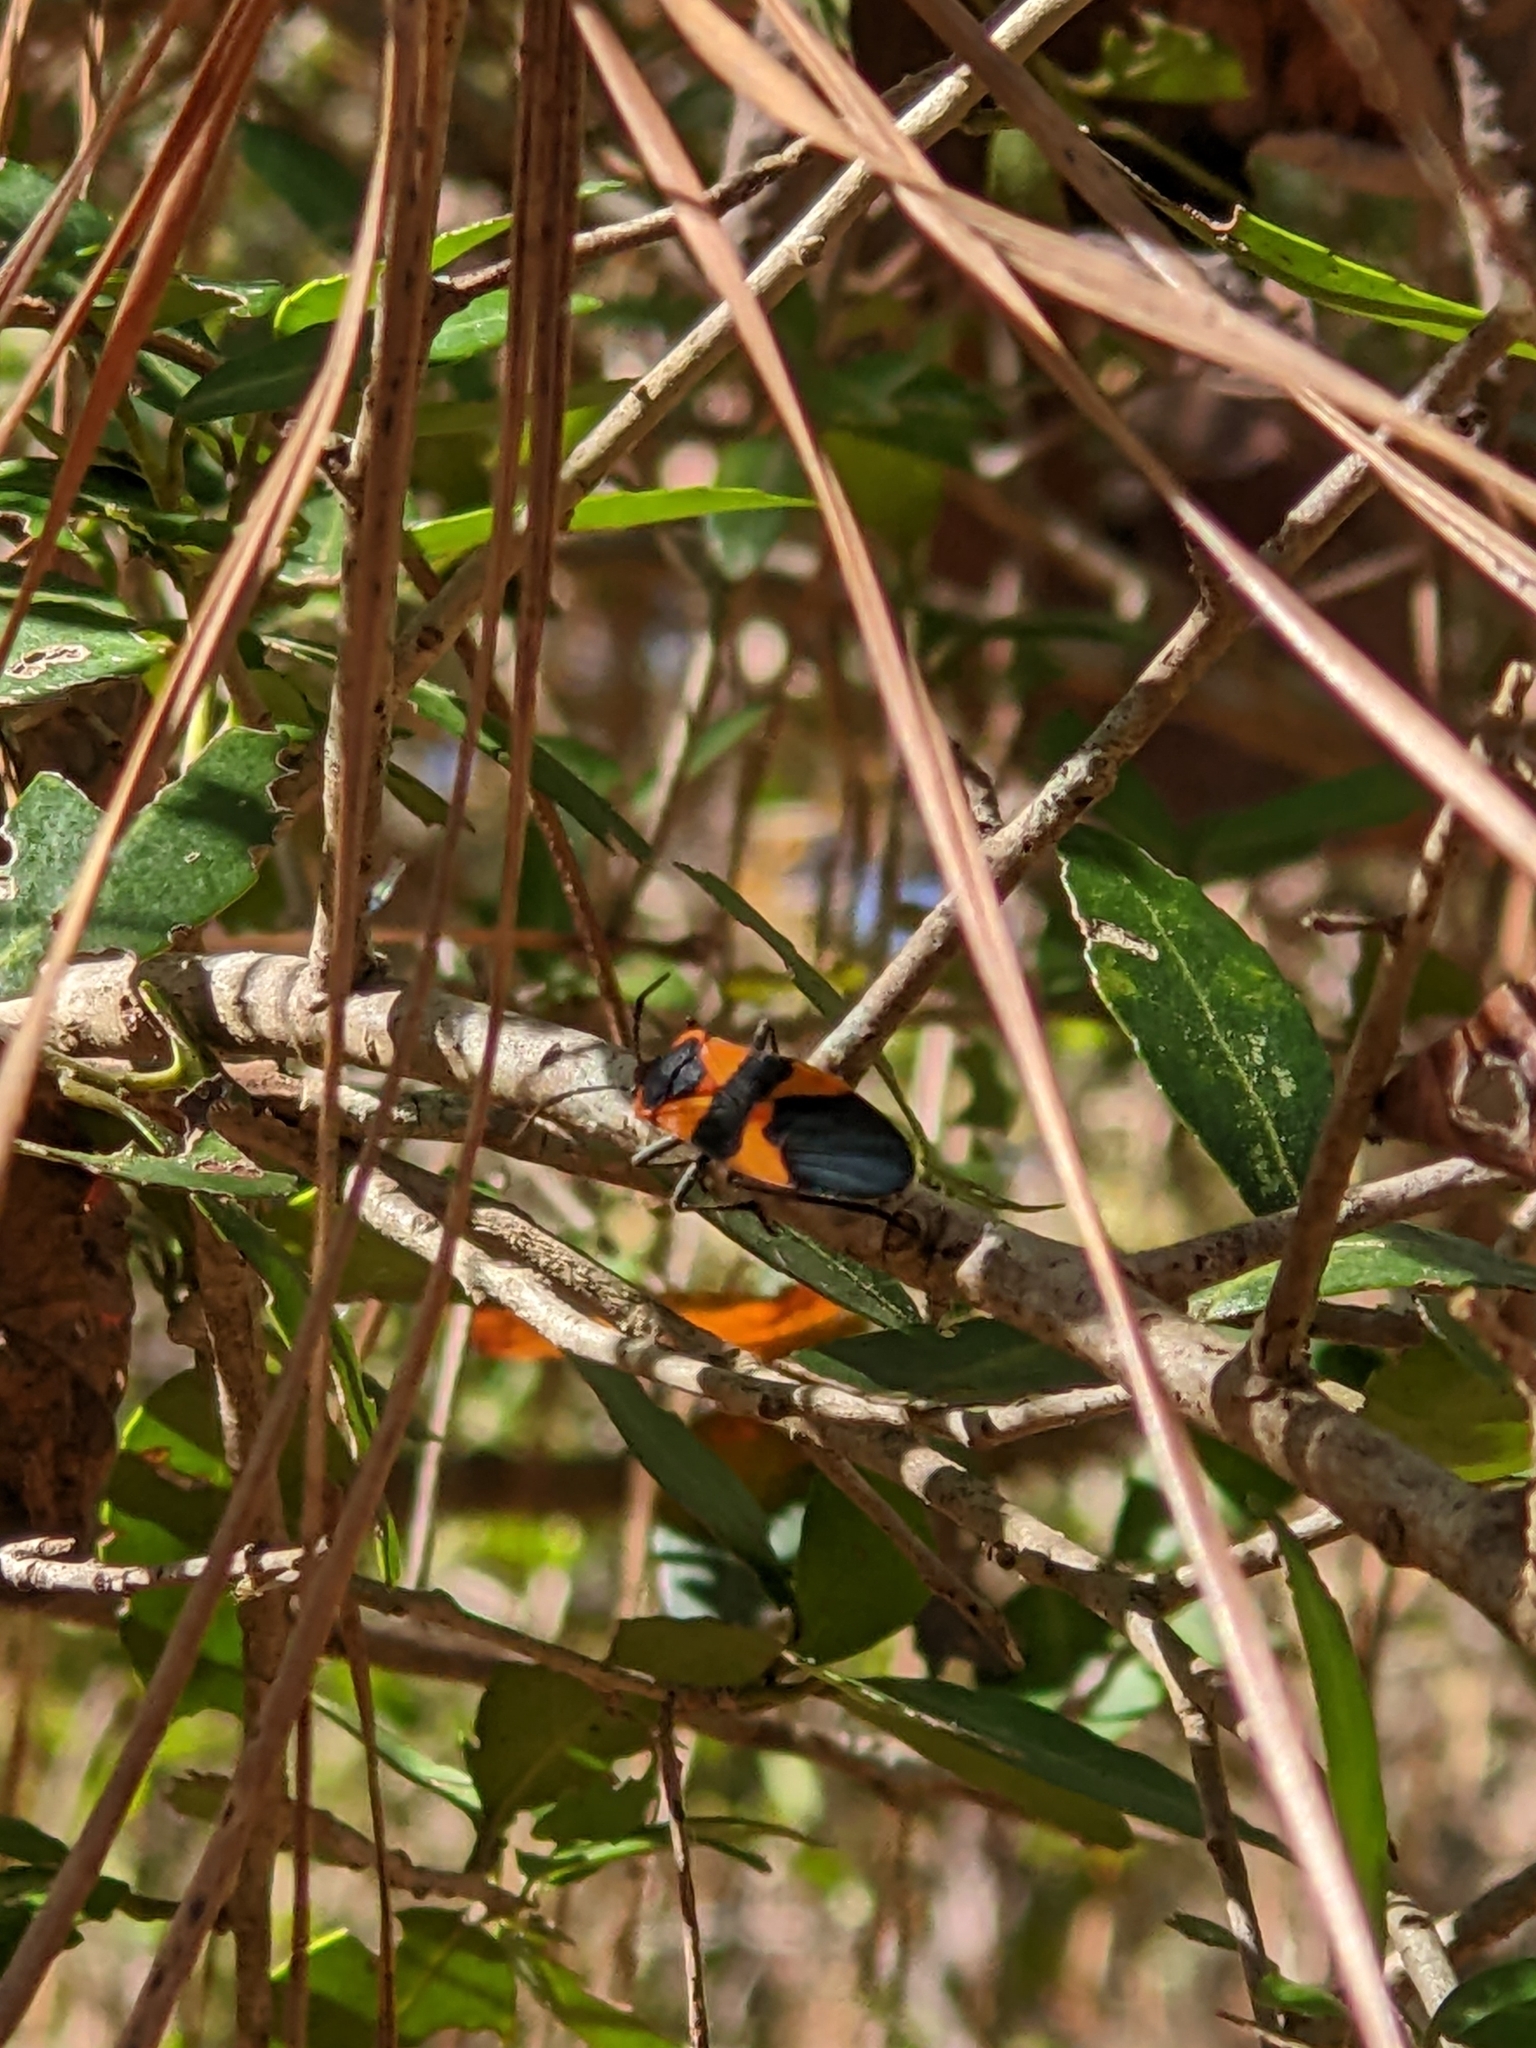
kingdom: Animalia
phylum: Arthropoda
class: Insecta
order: Hemiptera
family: Lygaeidae
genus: Oncopeltus
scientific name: Oncopeltus fasciatus
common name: Large milkweed bug
